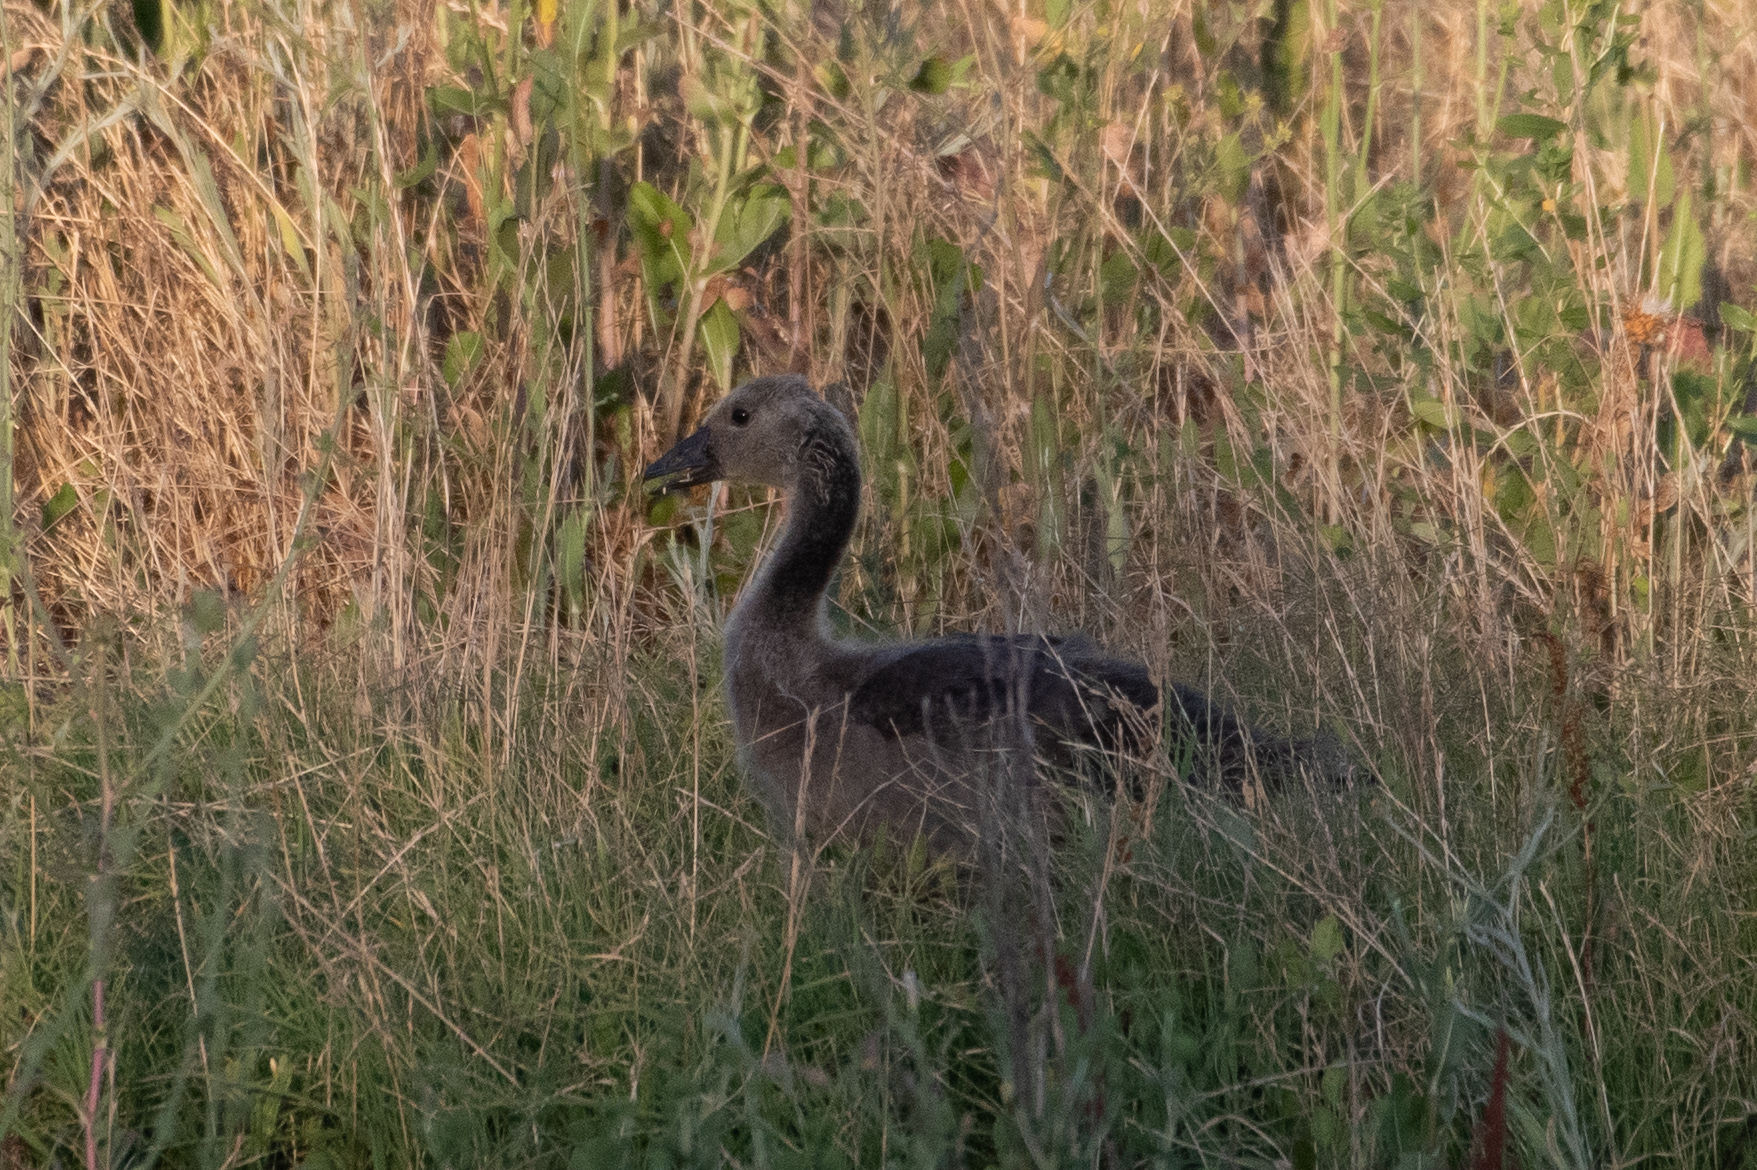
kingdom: Animalia
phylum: Chordata
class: Aves
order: Anseriformes
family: Anatidae
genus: Branta
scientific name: Branta canadensis
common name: Canada goose
